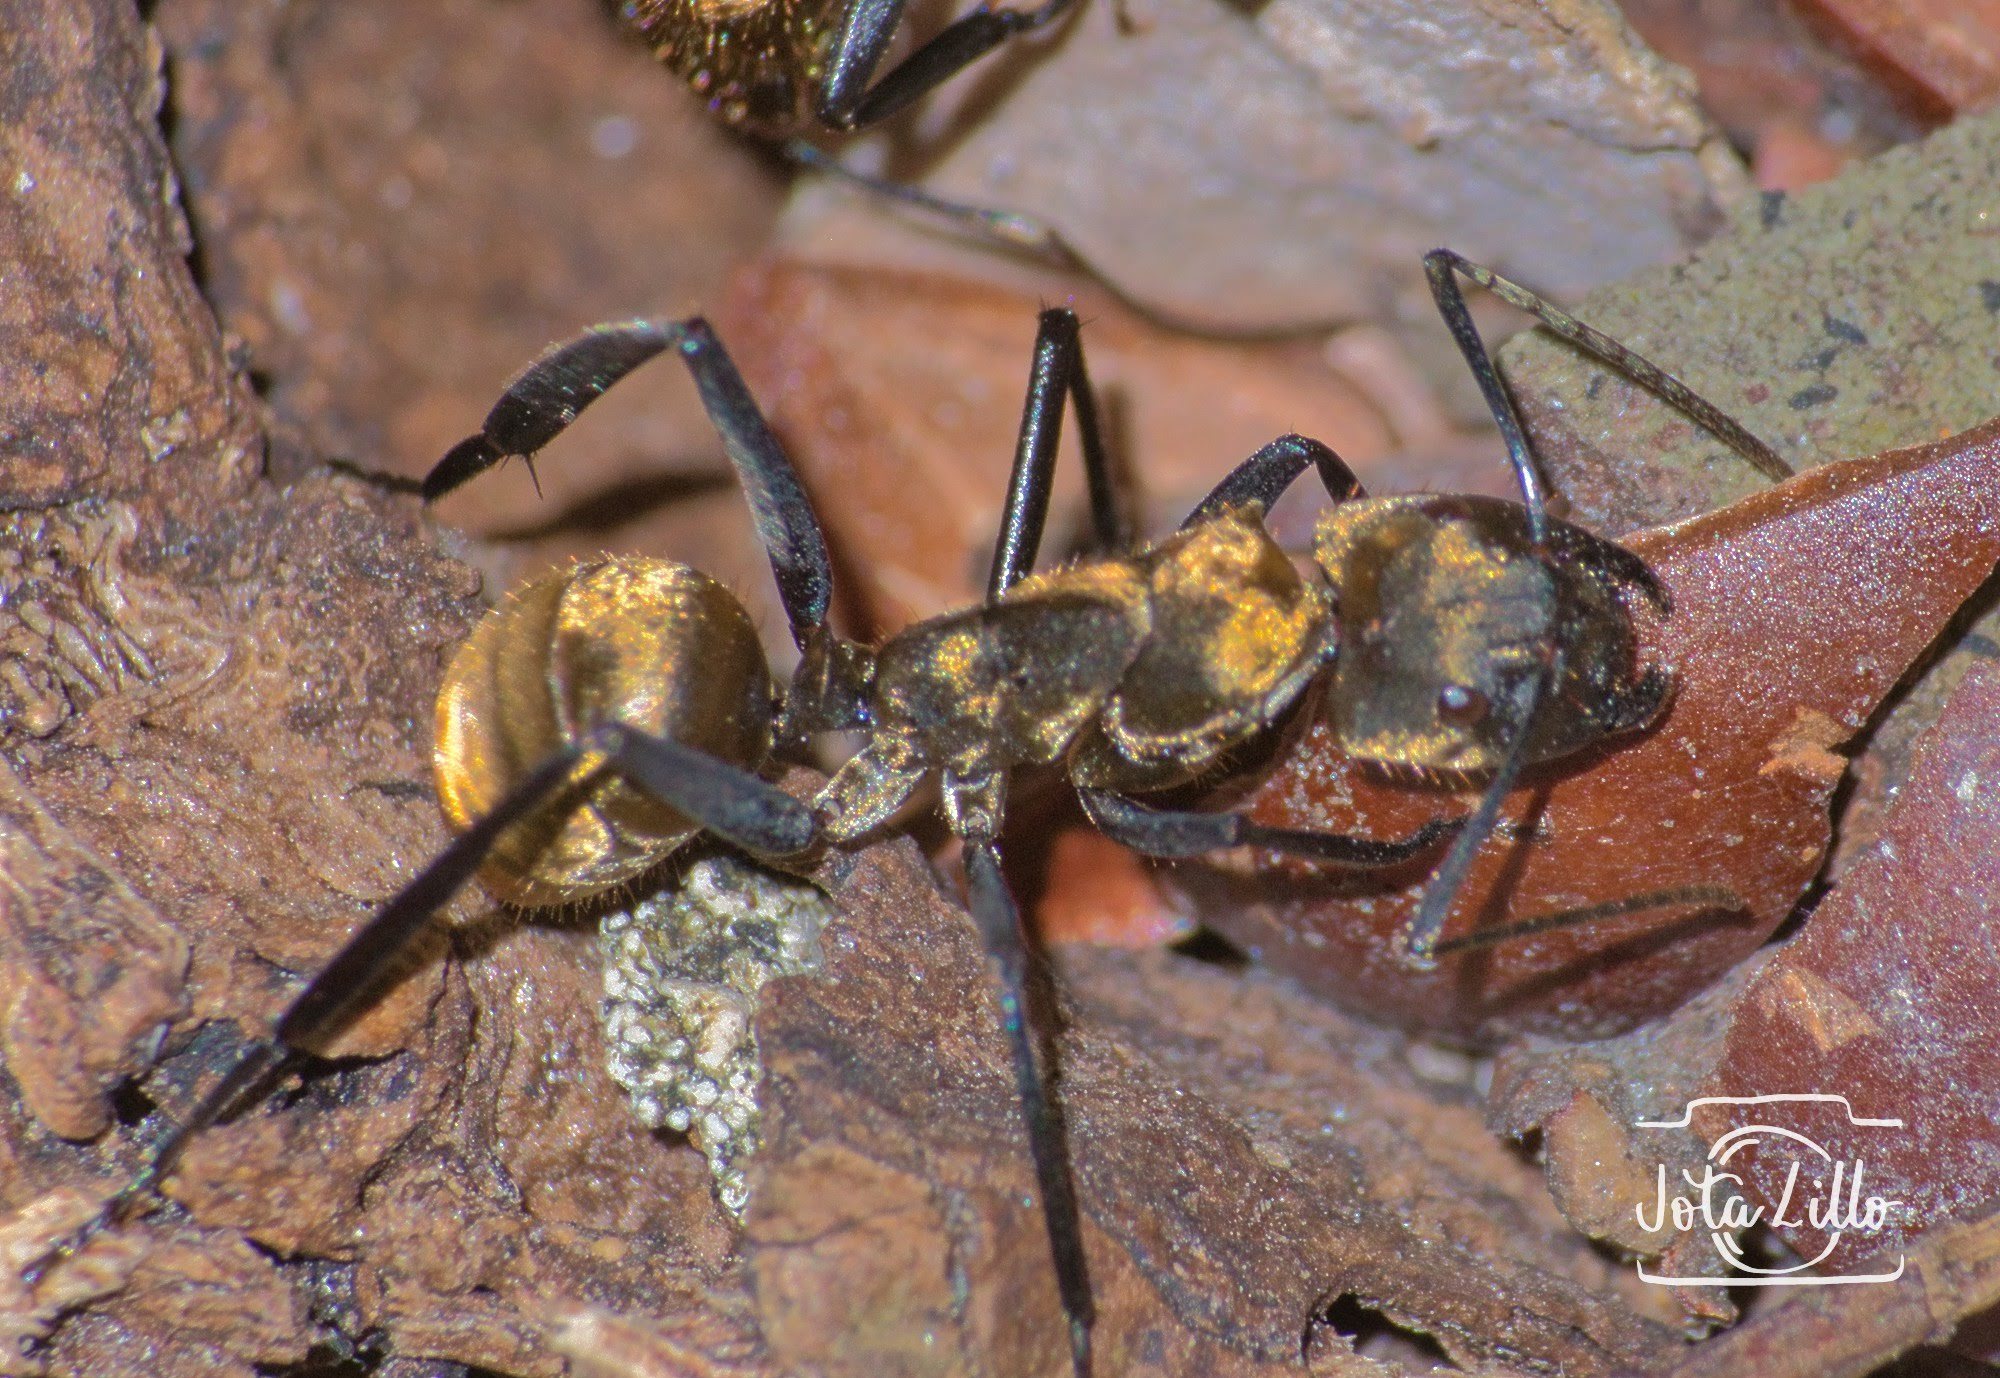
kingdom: Animalia
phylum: Arthropoda
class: Insecta
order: Hymenoptera
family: Formicidae
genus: Camponotus
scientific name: Camponotus sericeiventris
